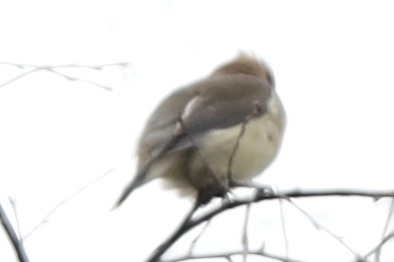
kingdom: Animalia
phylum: Chordata
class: Aves
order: Passeriformes
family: Bombycillidae
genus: Bombycilla
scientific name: Bombycilla cedrorum
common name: Cedar waxwing
